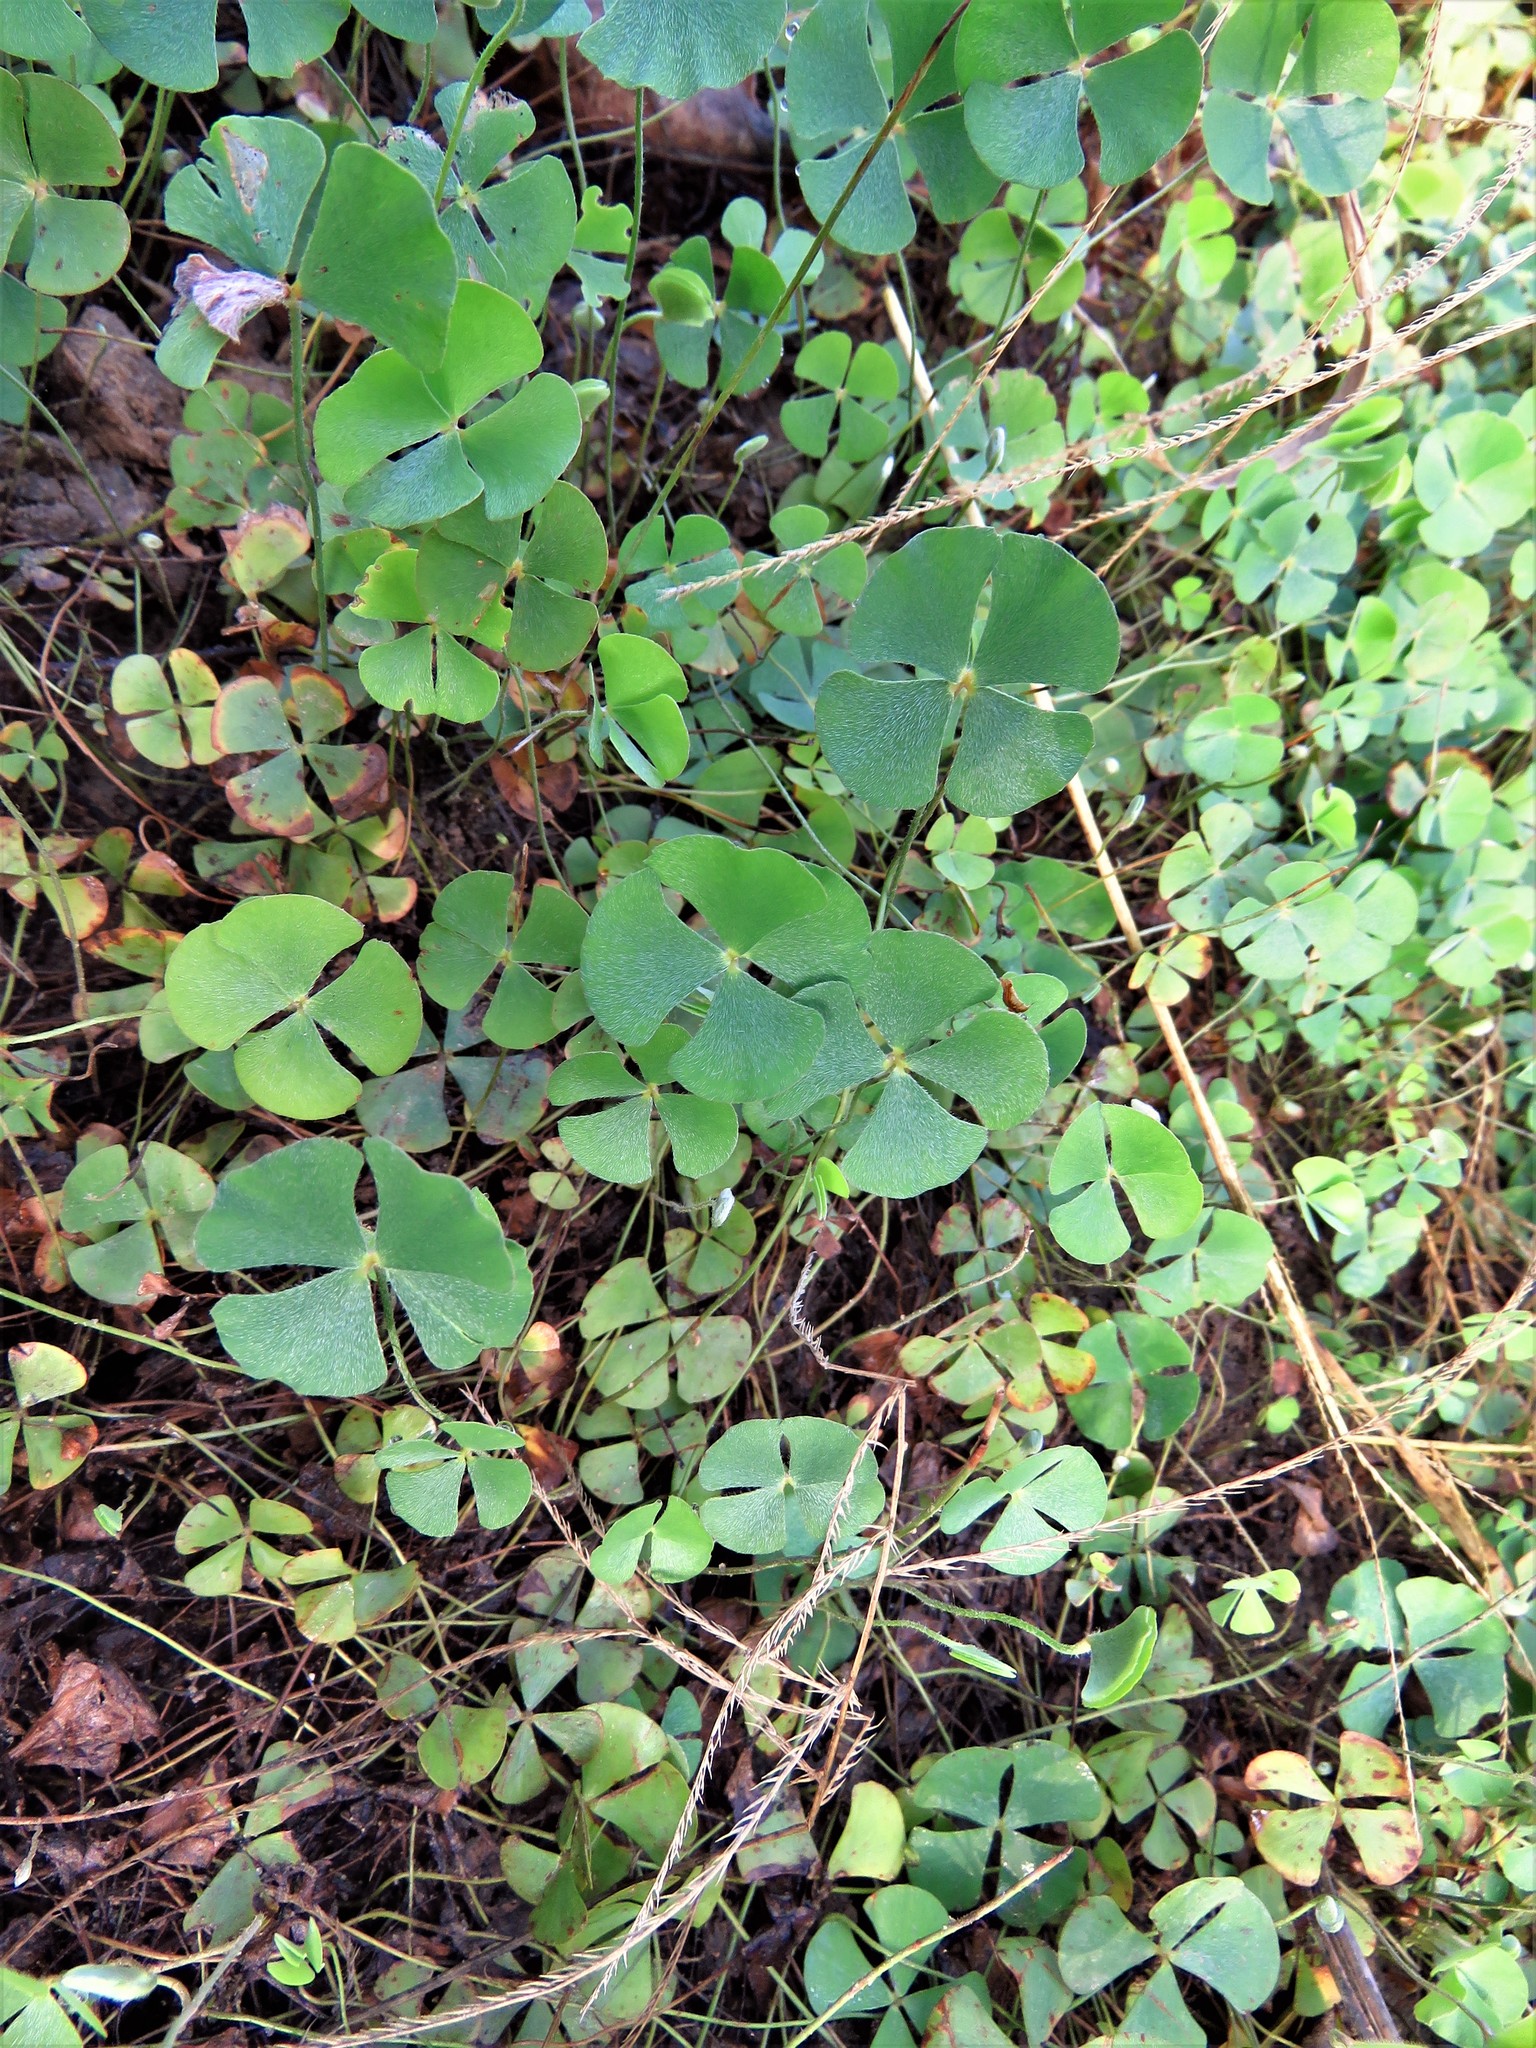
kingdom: Plantae
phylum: Tracheophyta
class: Polypodiopsida
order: Salviniales
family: Marsileaceae
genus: Marsilea
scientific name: Marsilea vestita
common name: Hooked-pepperwort
